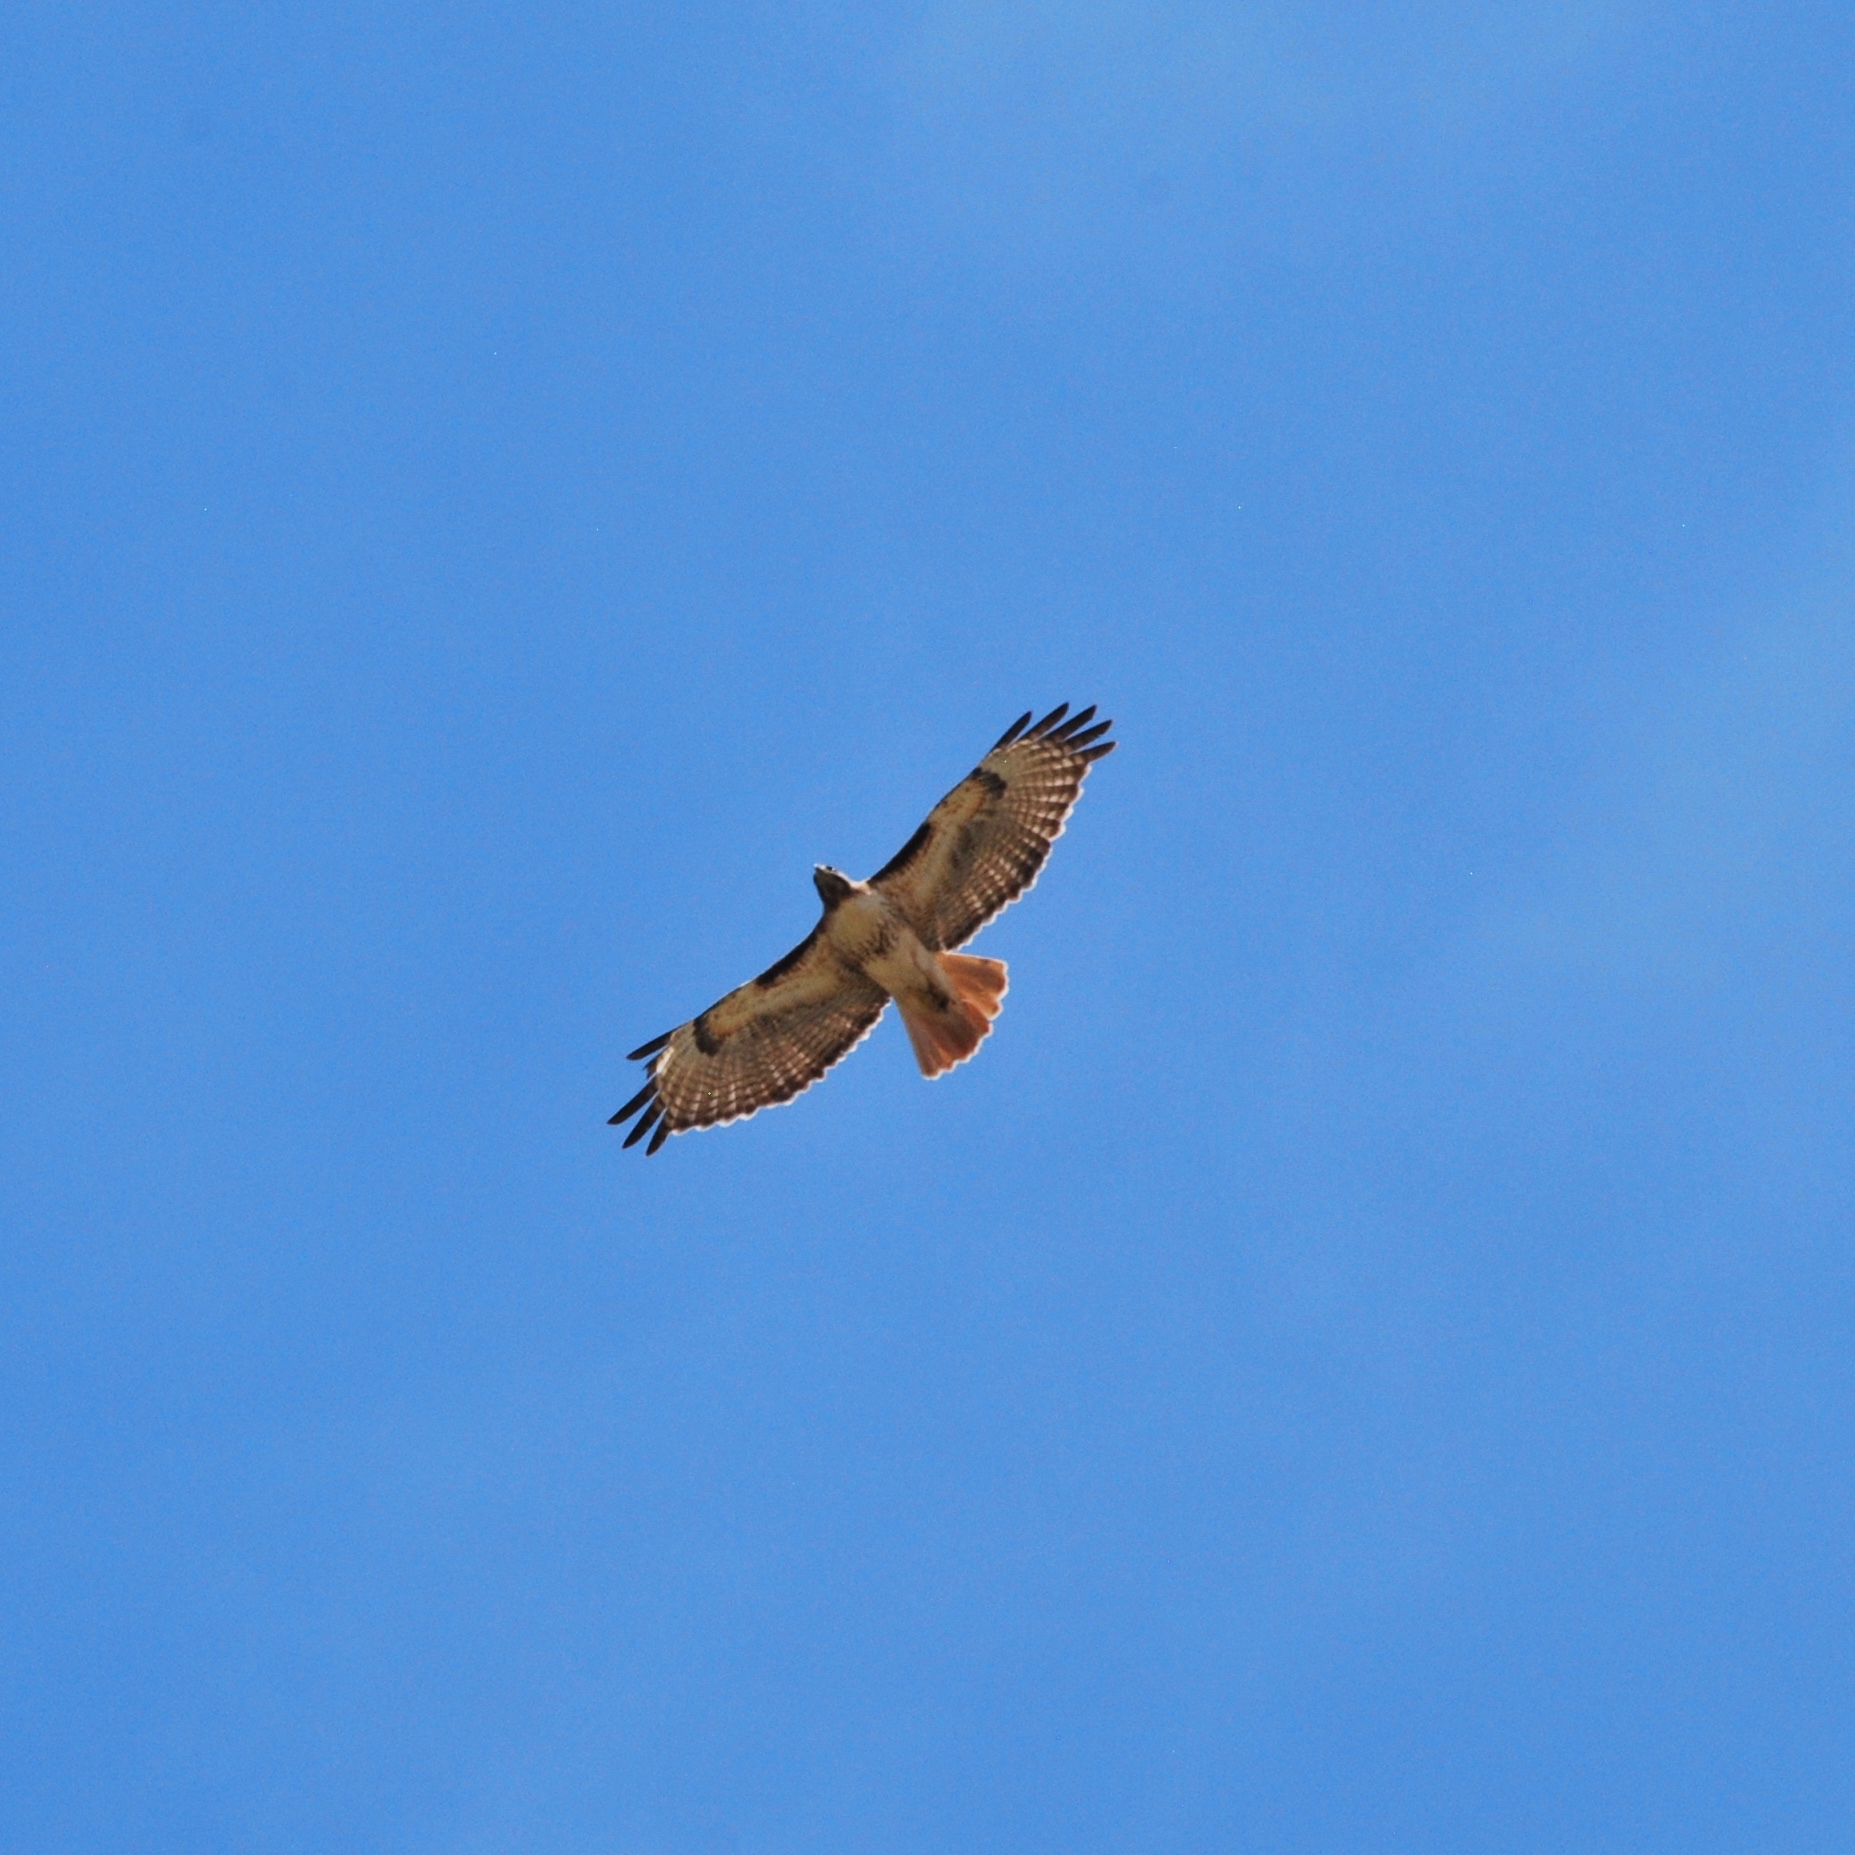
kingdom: Animalia
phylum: Chordata
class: Aves
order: Accipitriformes
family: Accipitridae
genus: Buteo
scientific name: Buteo jamaicensis
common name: Red-tailed hawk
